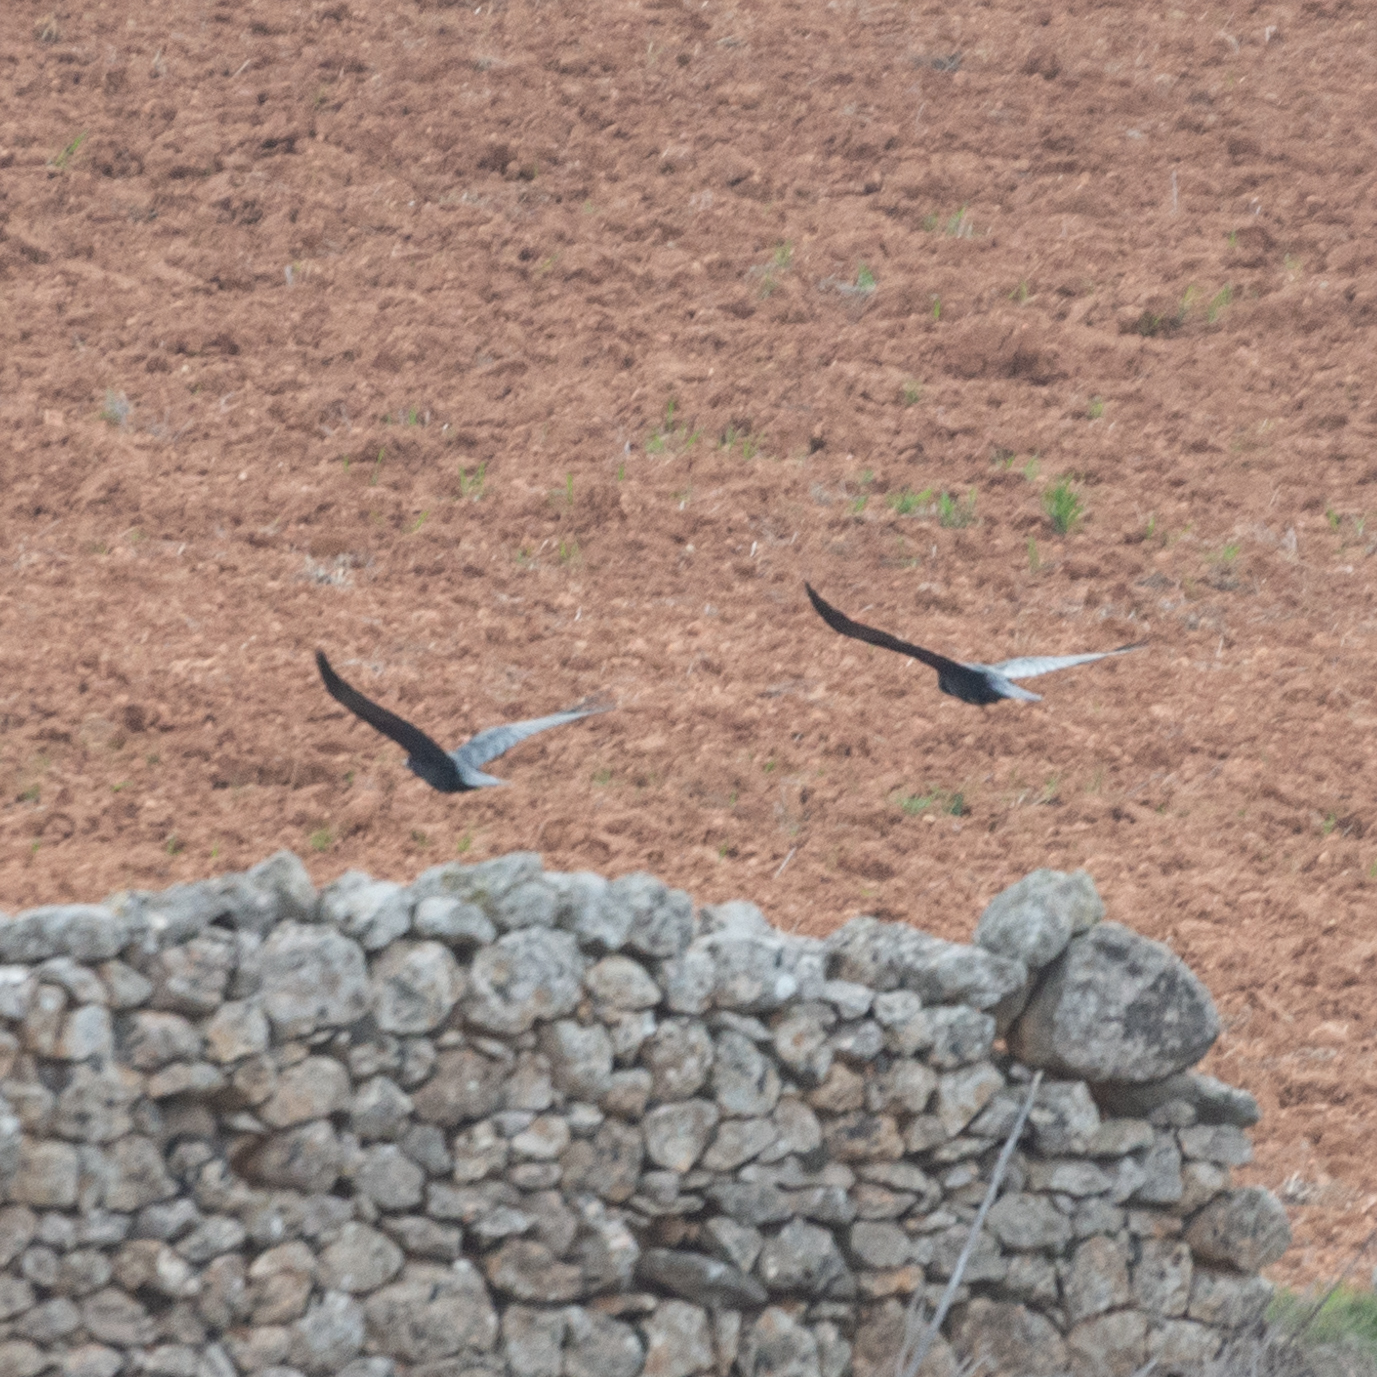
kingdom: Animalia
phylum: Chordata
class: Aves
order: Passeriformes
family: Corvidae
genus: Corvus
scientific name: Corvus corone
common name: Carrion crow
